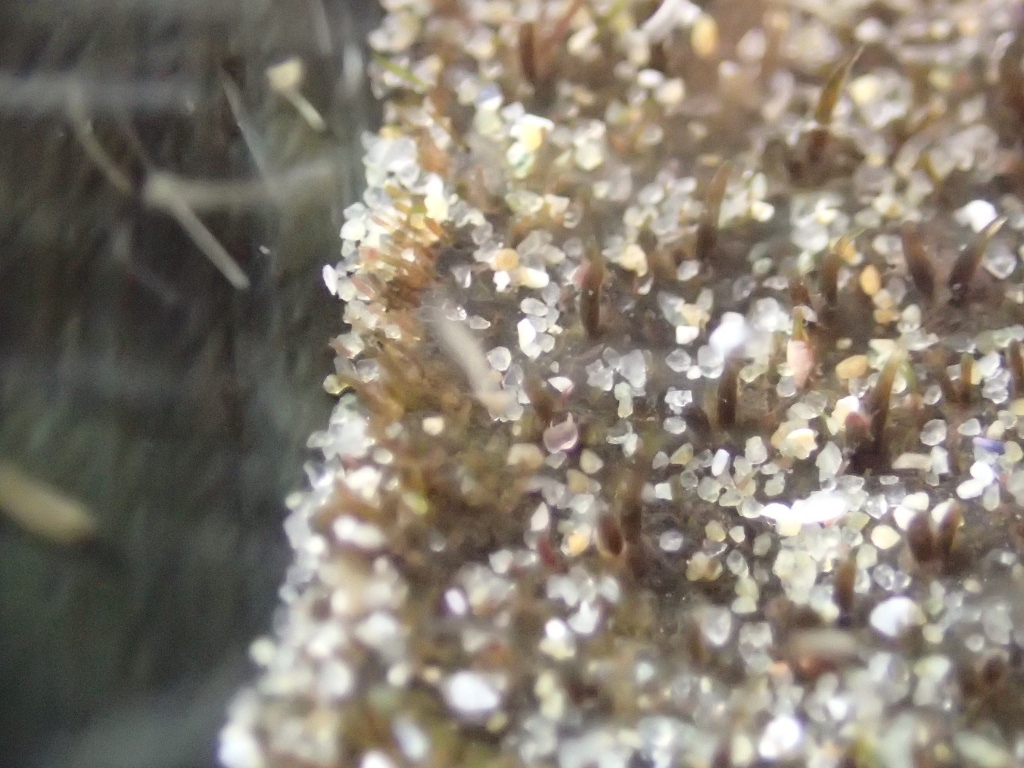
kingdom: Animalia
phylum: Mollusca
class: Polyplacophora
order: Chitonida
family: Mopaliidae
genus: Plaxiphora
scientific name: Plaxiphora obtecta
